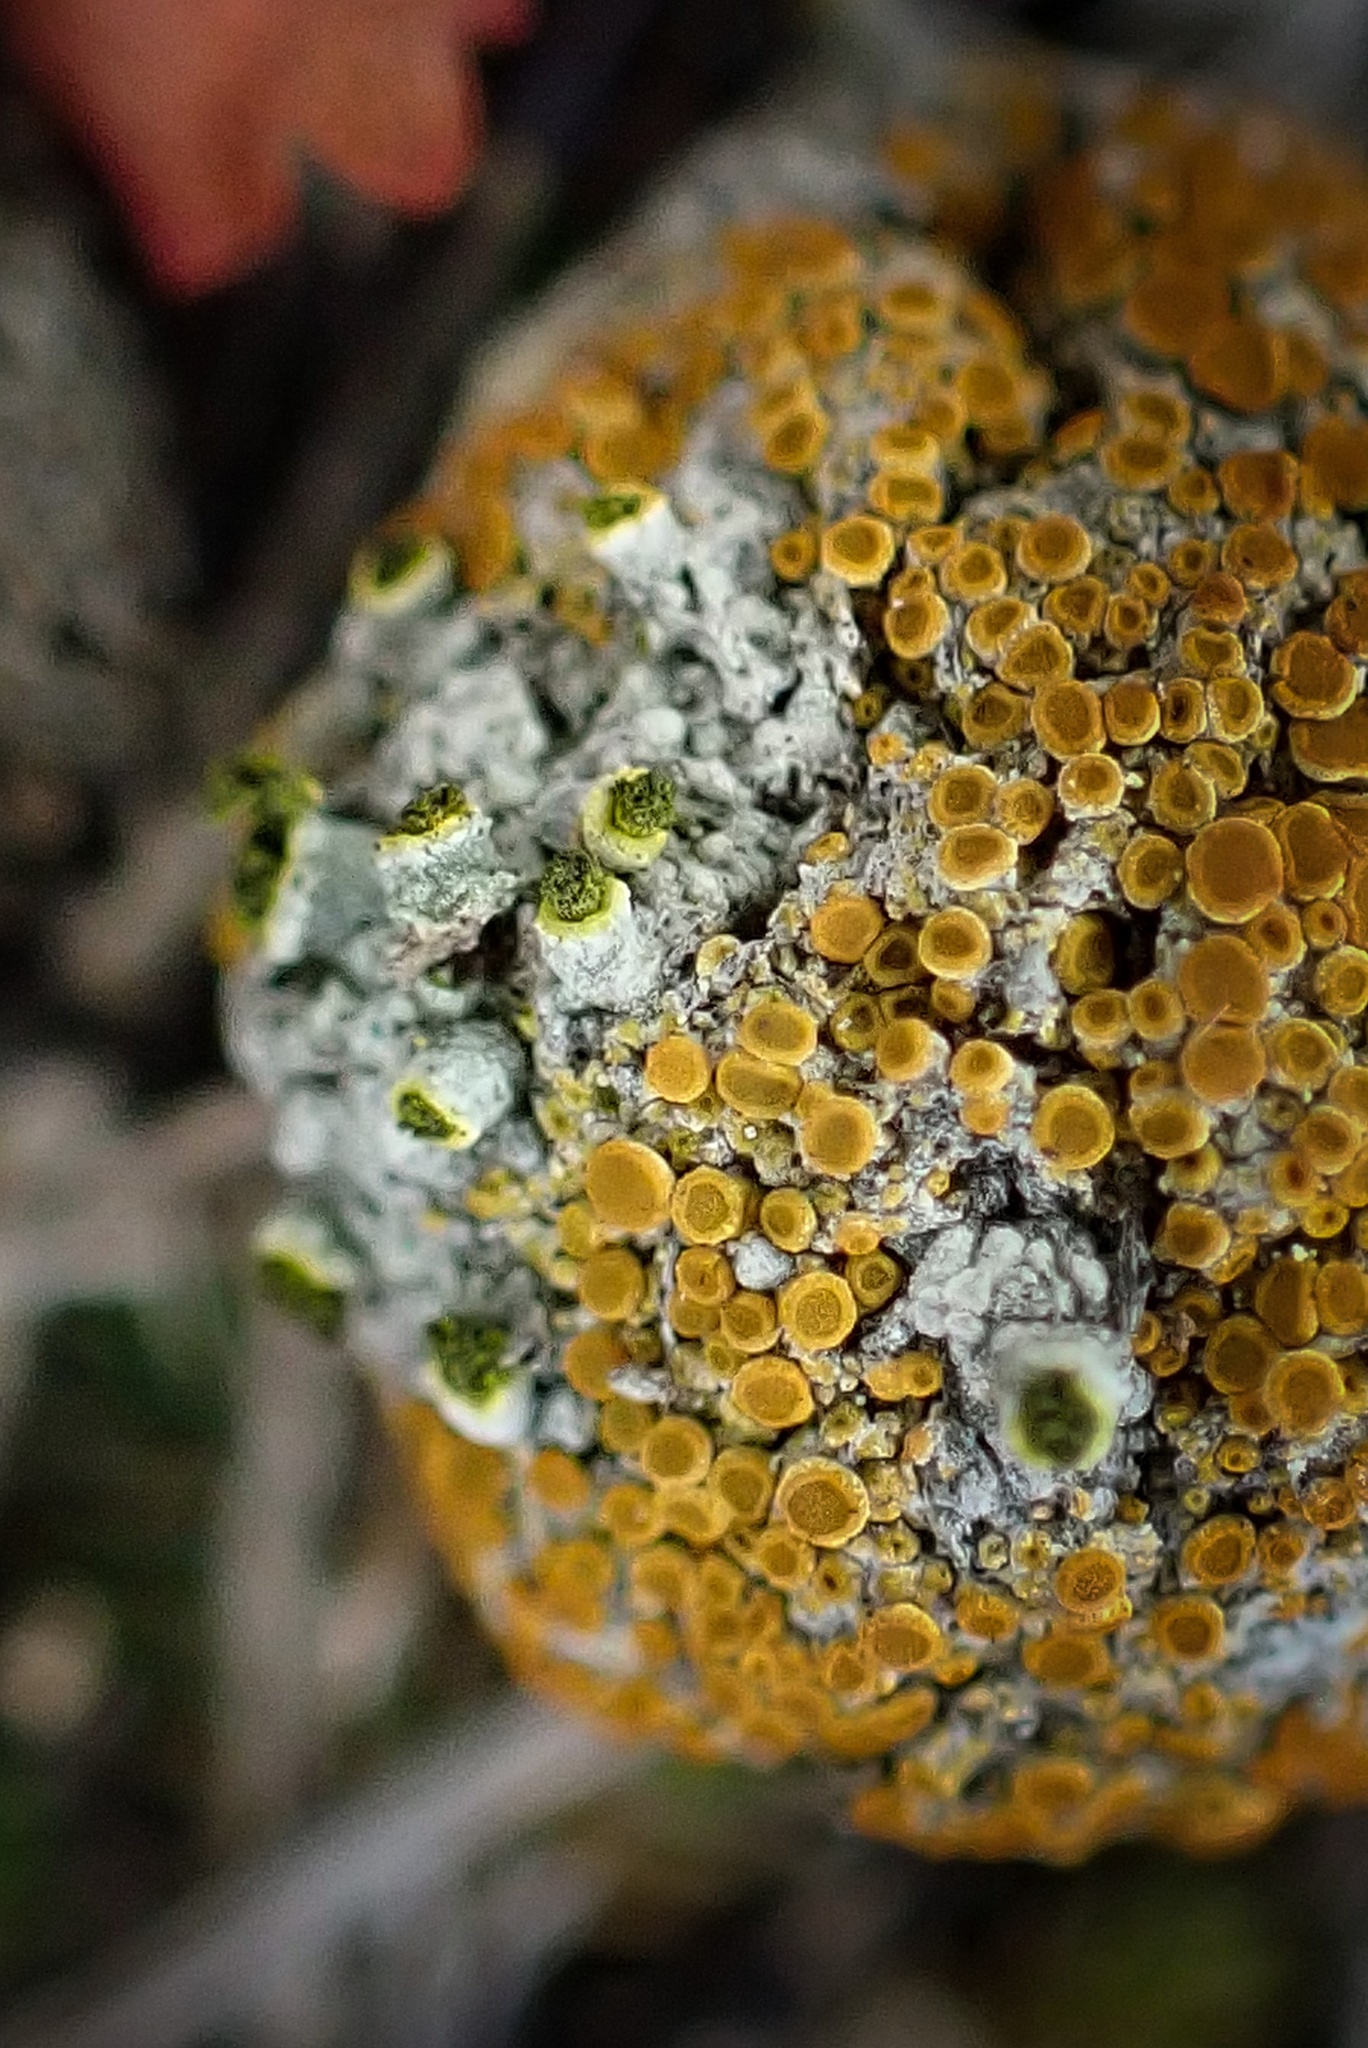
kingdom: Fungi
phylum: Ascomycota
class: Lecanoromycetes
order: Caliciales
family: Caliciaceae
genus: Texosporium
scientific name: Texosporium sancti-jacobi
